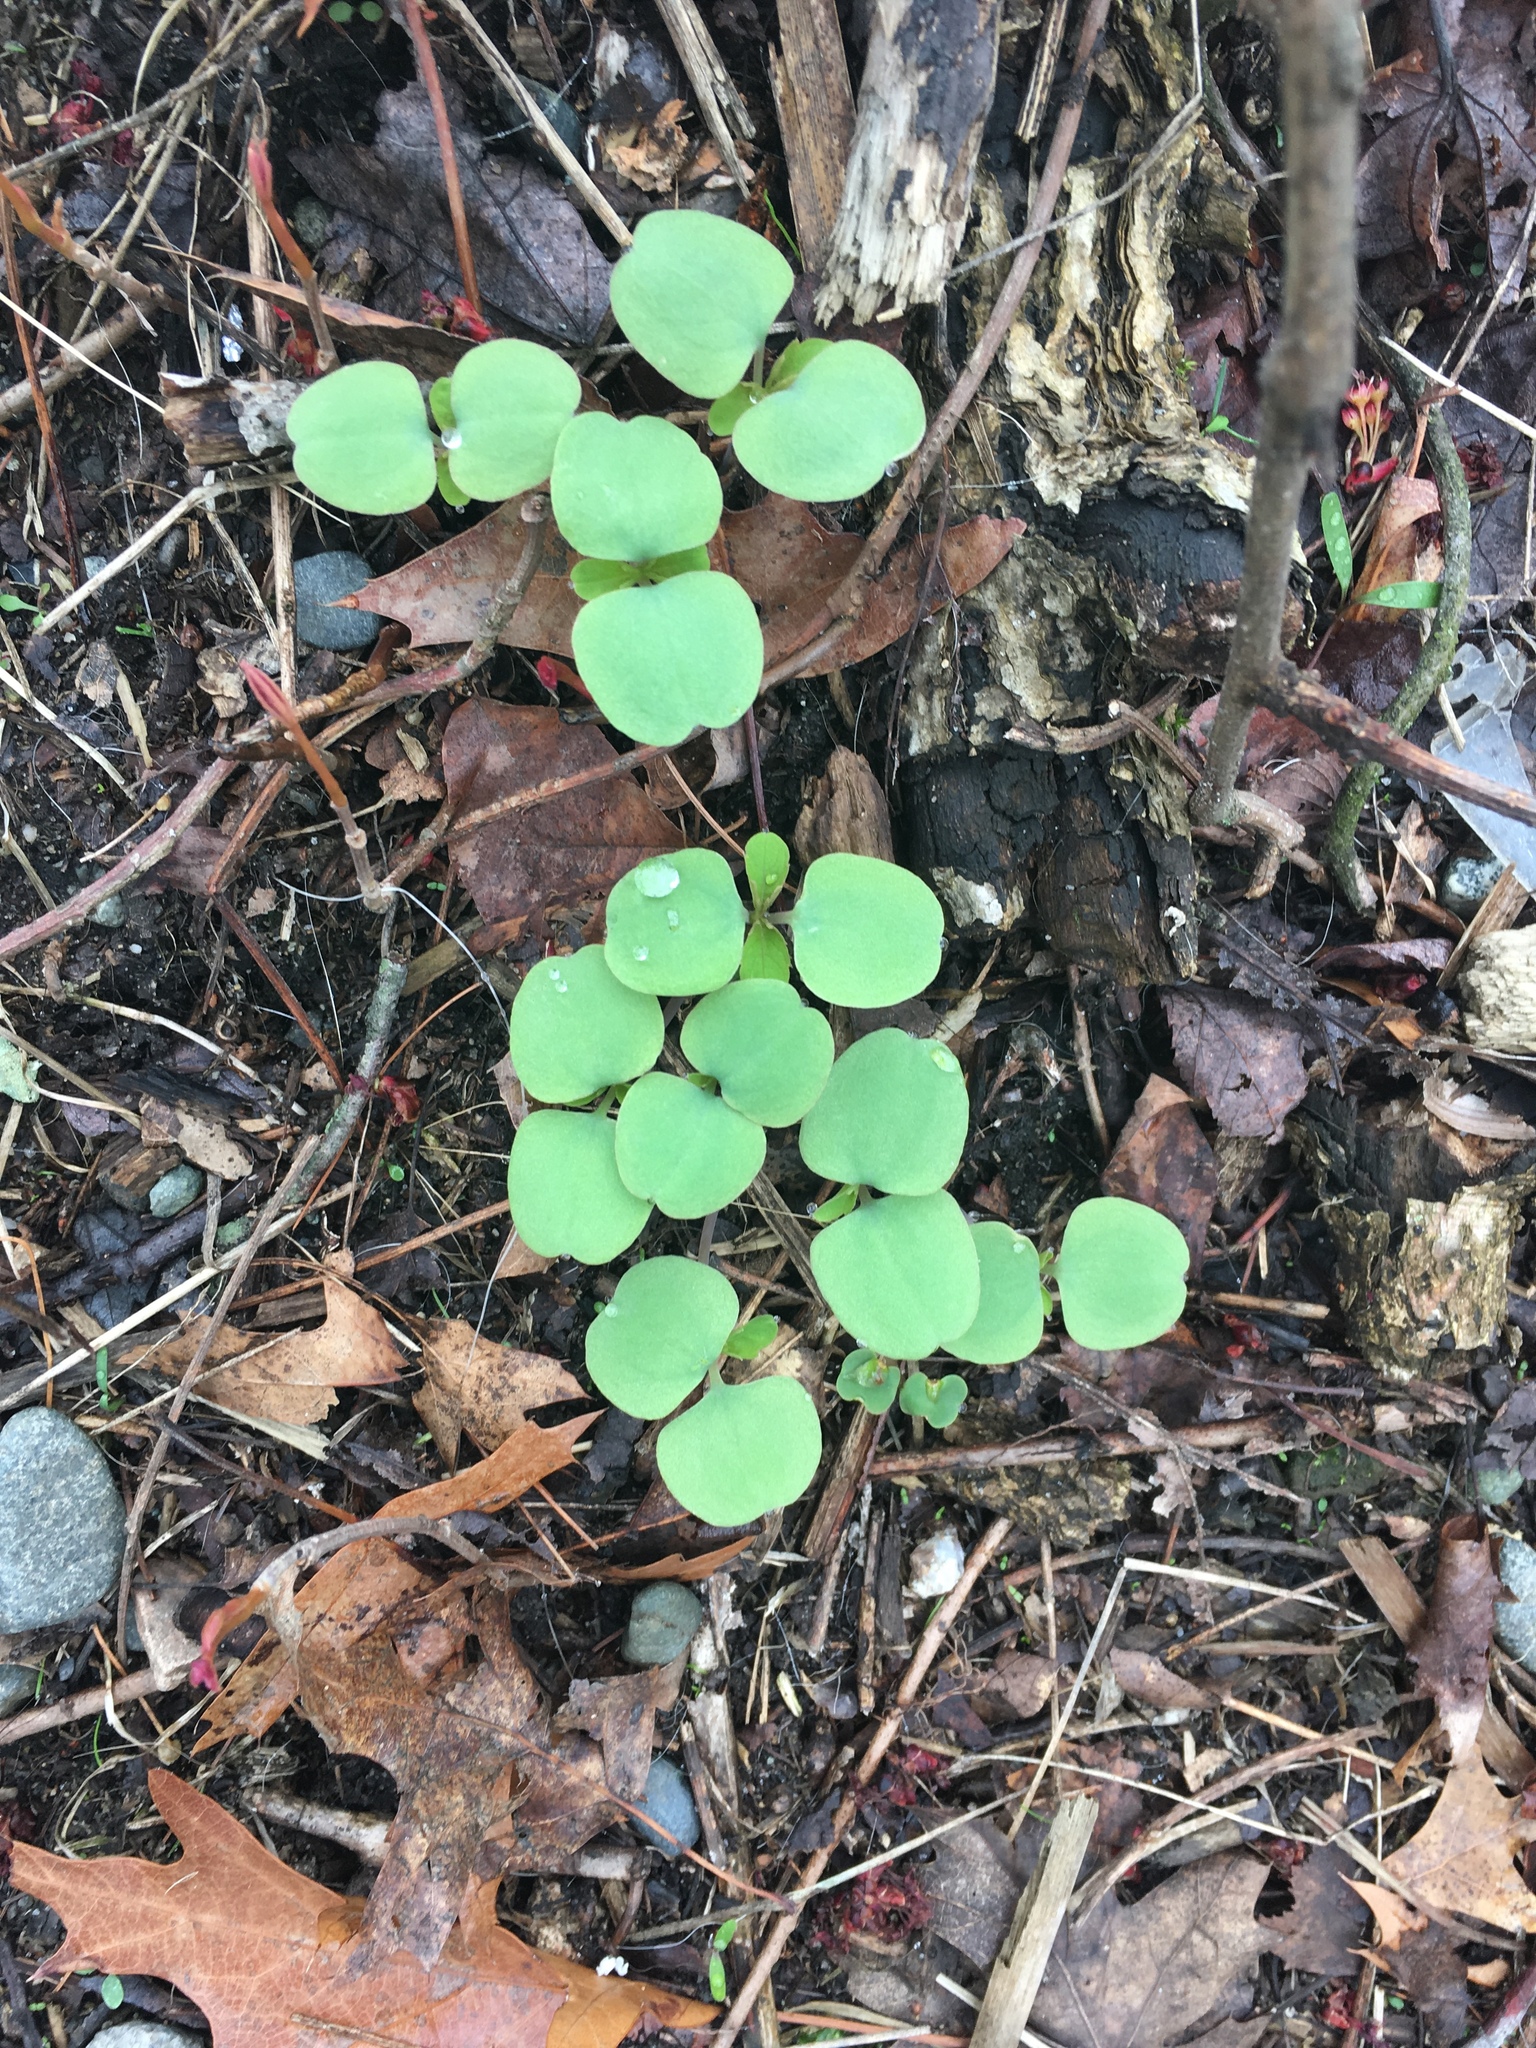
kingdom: Plantae
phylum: Tracheophyta
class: Magnoliopsida
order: Ericales
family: Balsaminaceae
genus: Impatiens
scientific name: Impatiens capensis
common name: Orange balsam
